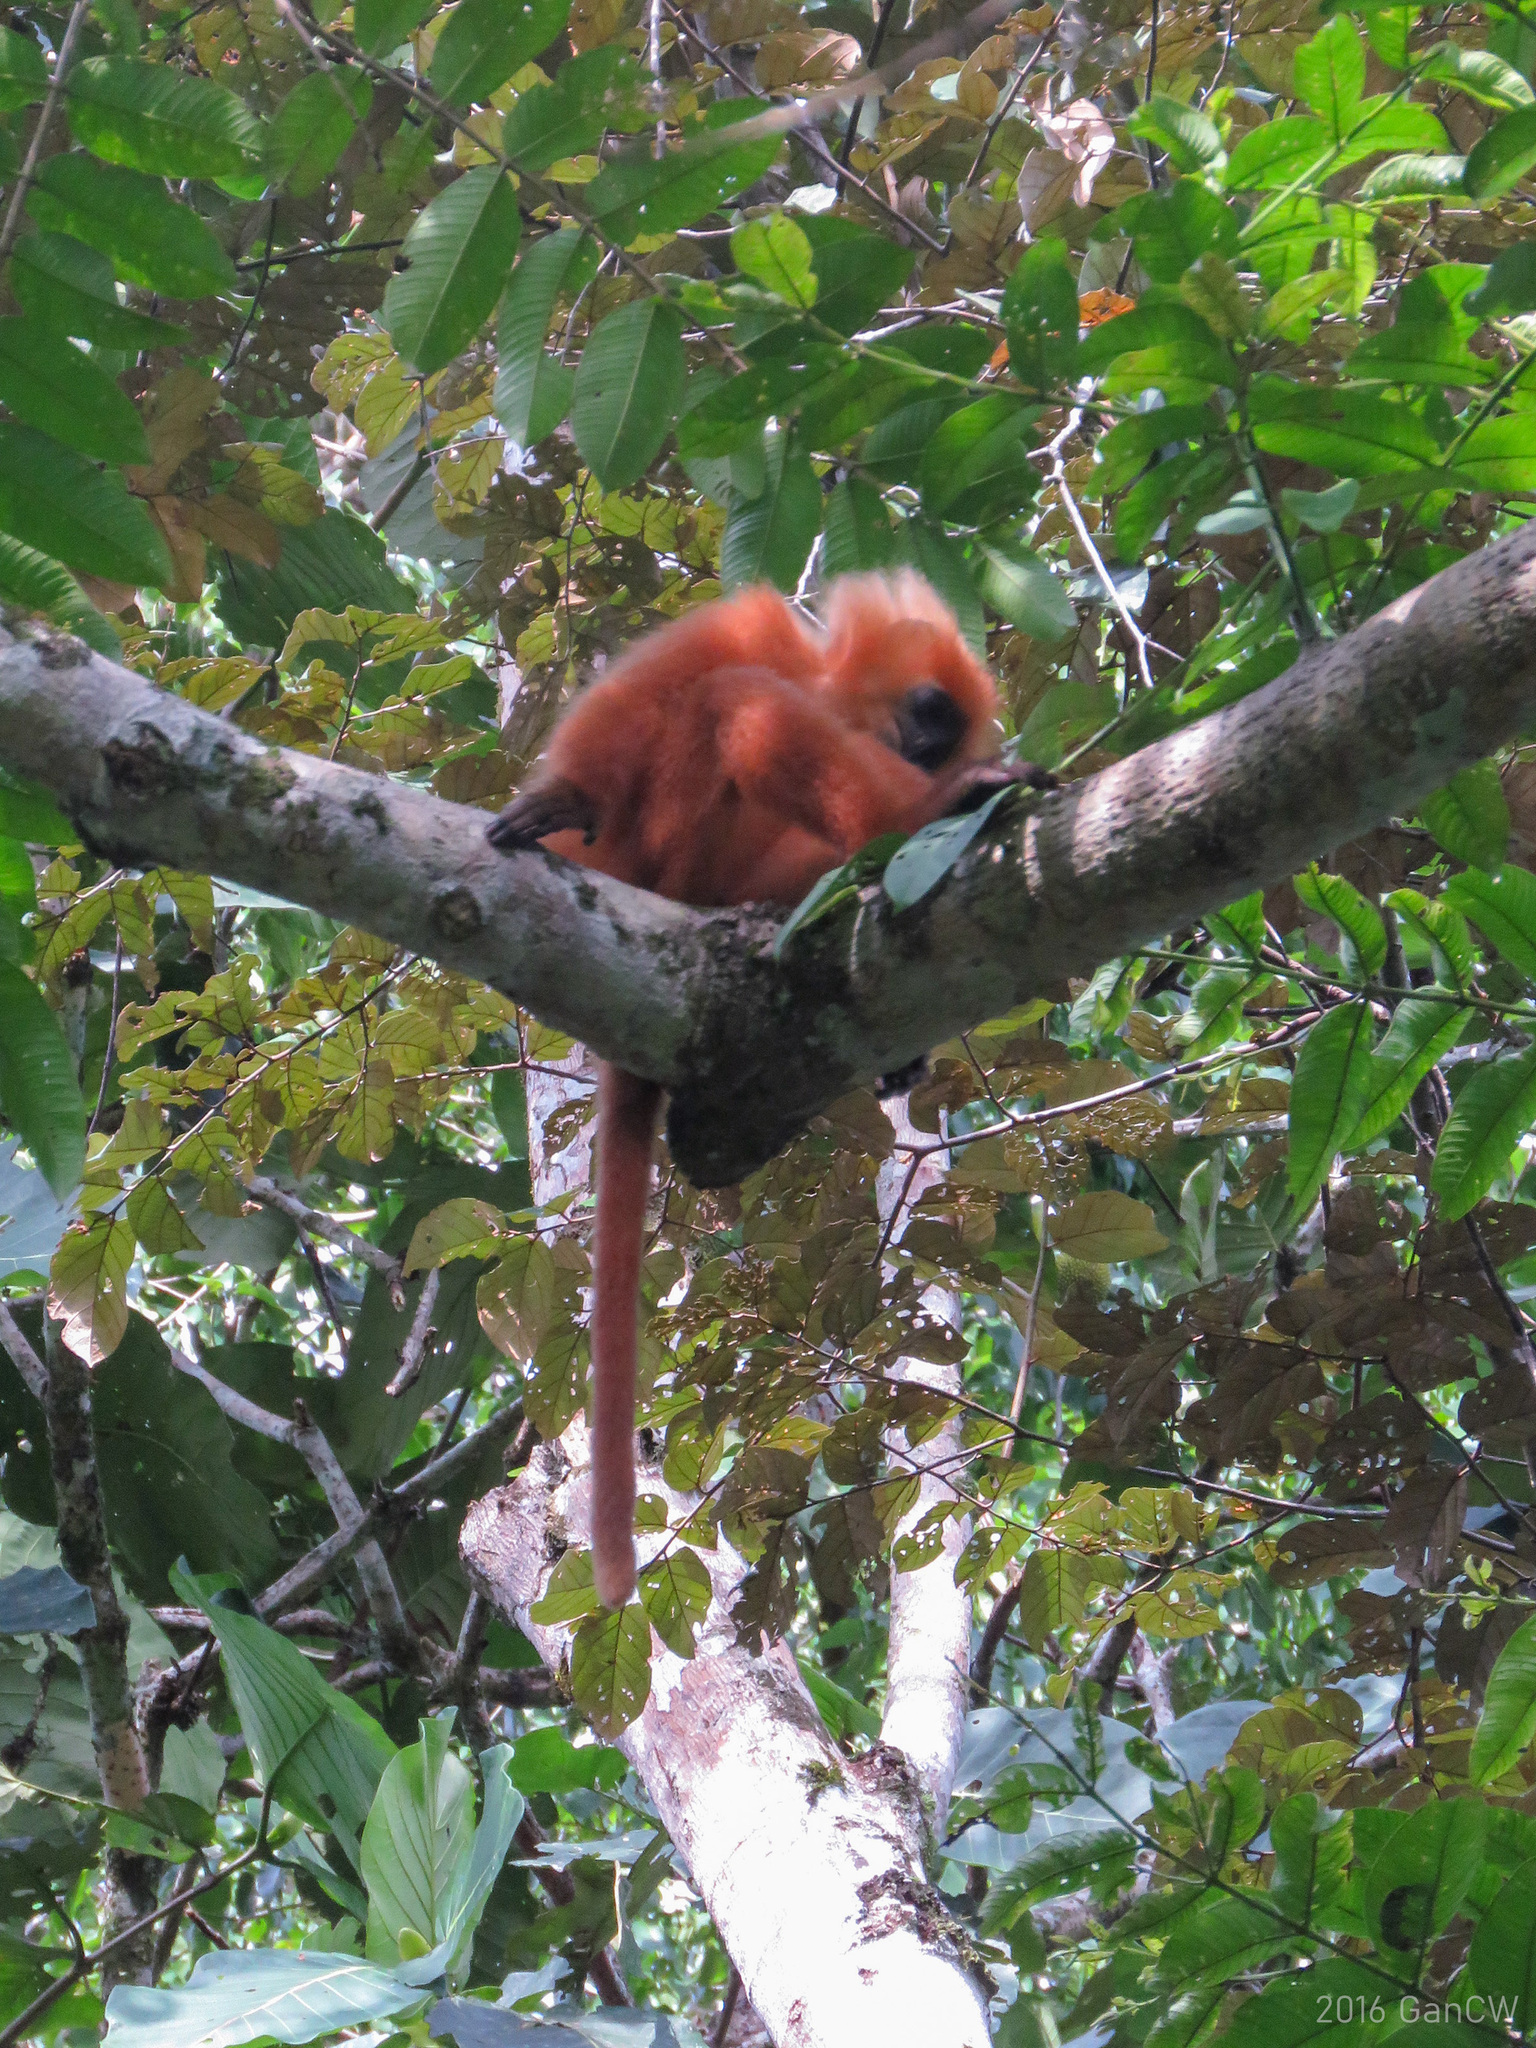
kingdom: Animalia
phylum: Chordata
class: Mammalia
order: Primates
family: Cercopithecidae
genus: Presbytis
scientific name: Presbytis rubicunda
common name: Maroon leaf monkey
